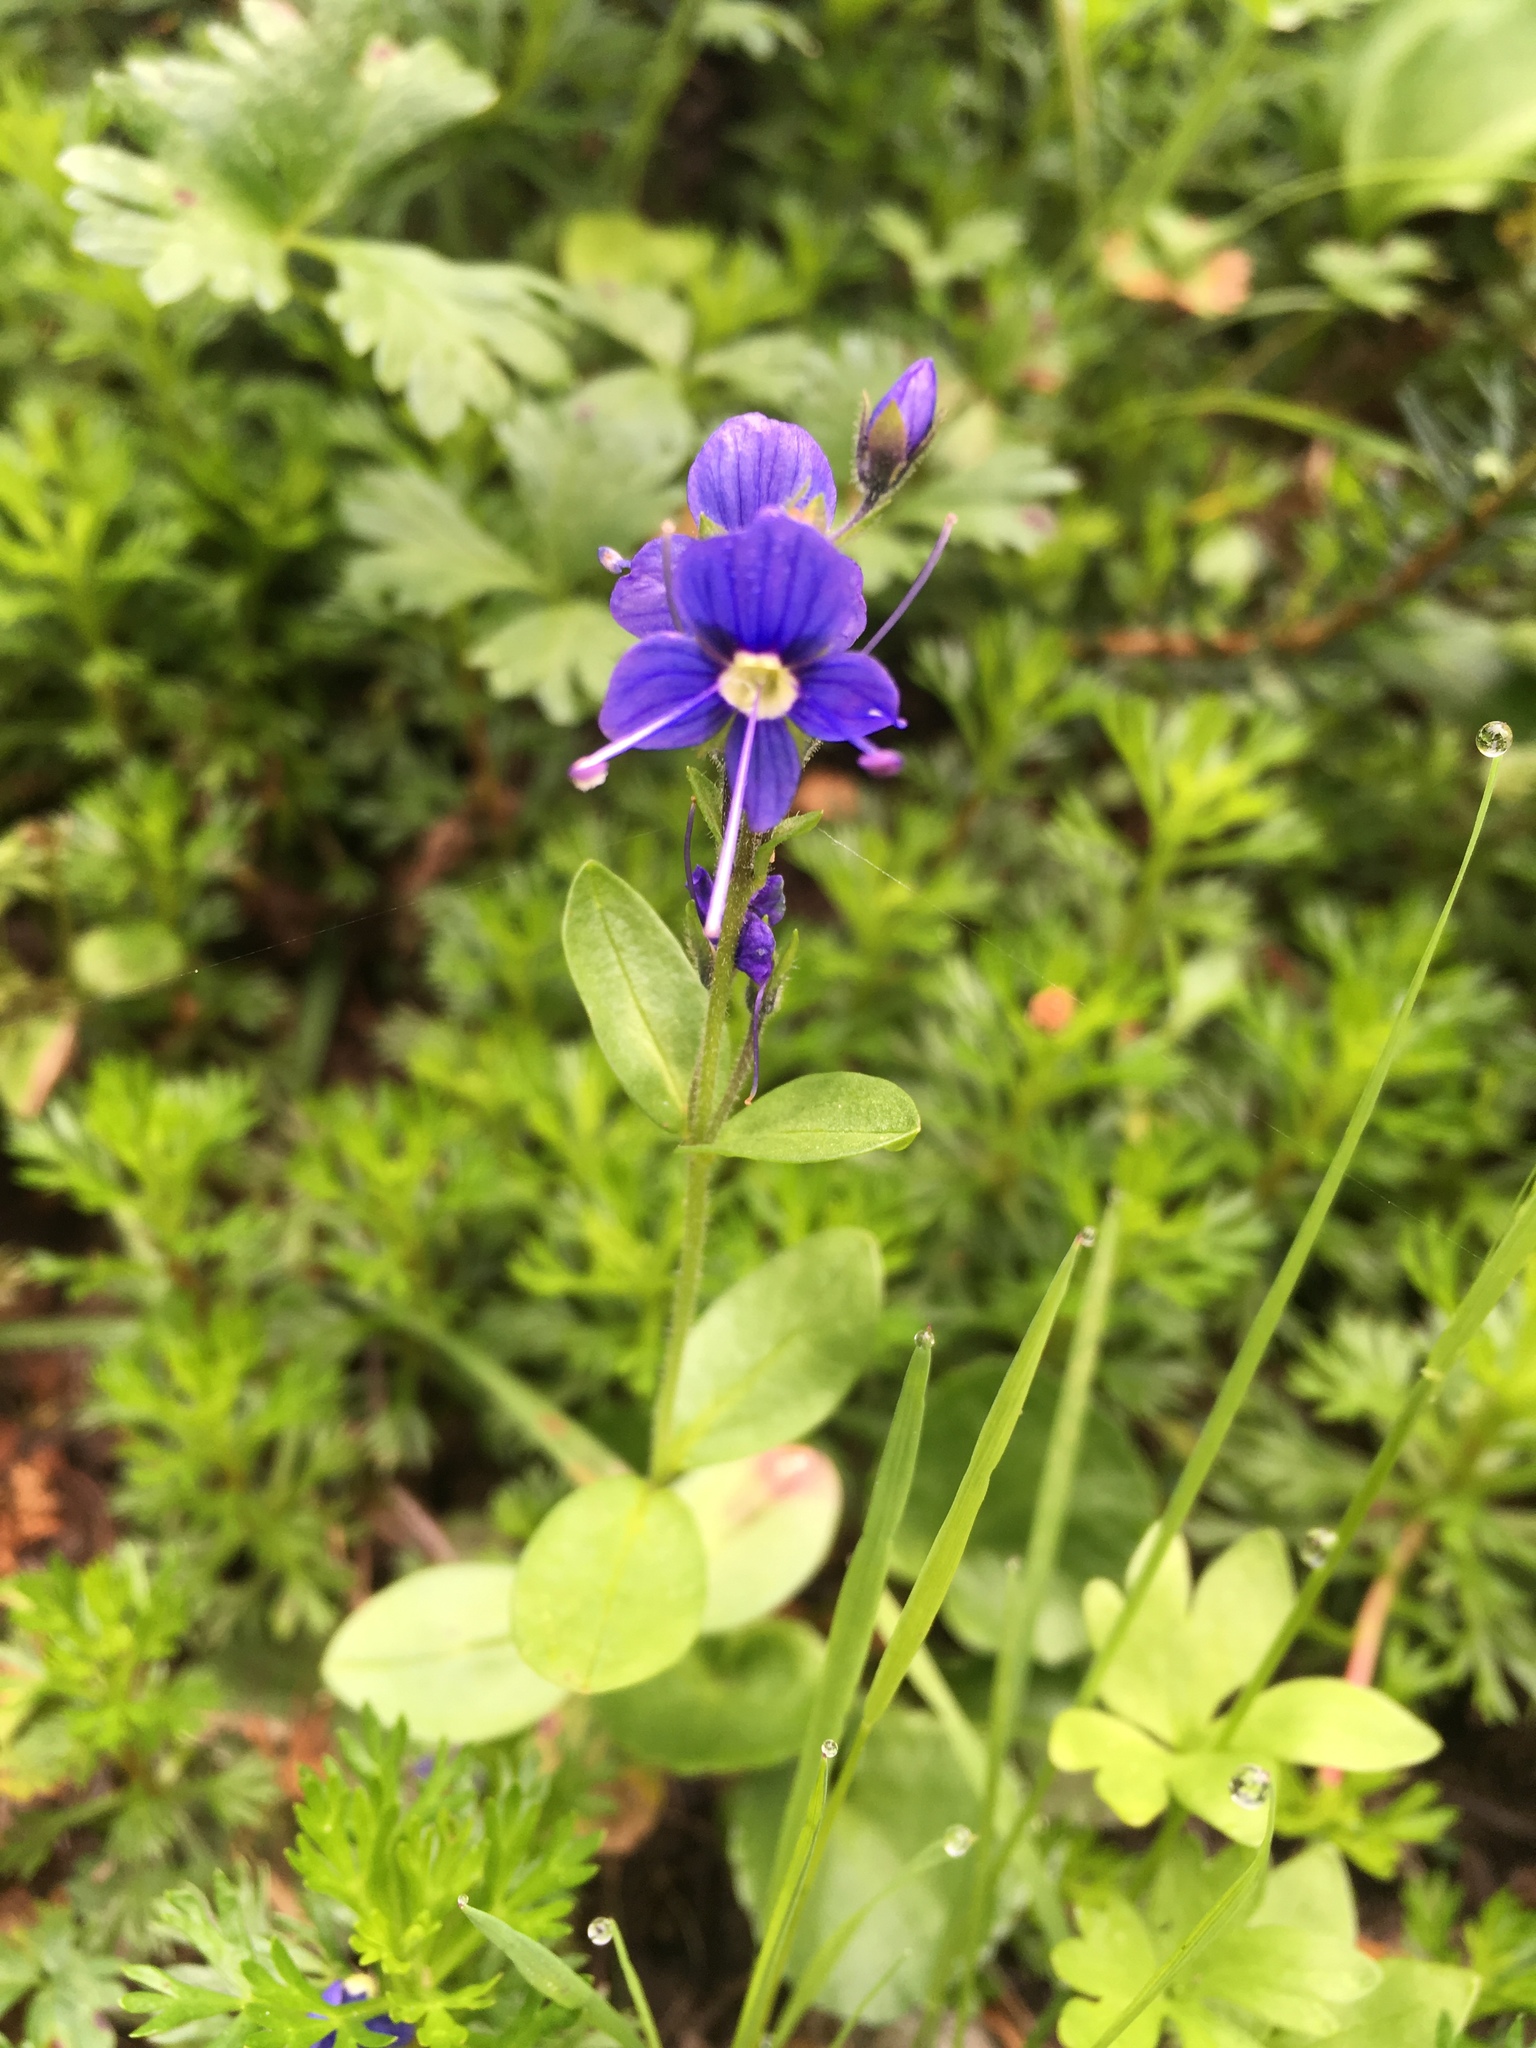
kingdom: Plantae
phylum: Tracheophyta
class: Magnoliopsida
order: Lamiales
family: Plantaginaceae
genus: Veronica
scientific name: Veronica cusickii
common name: Cusick's speedwell
